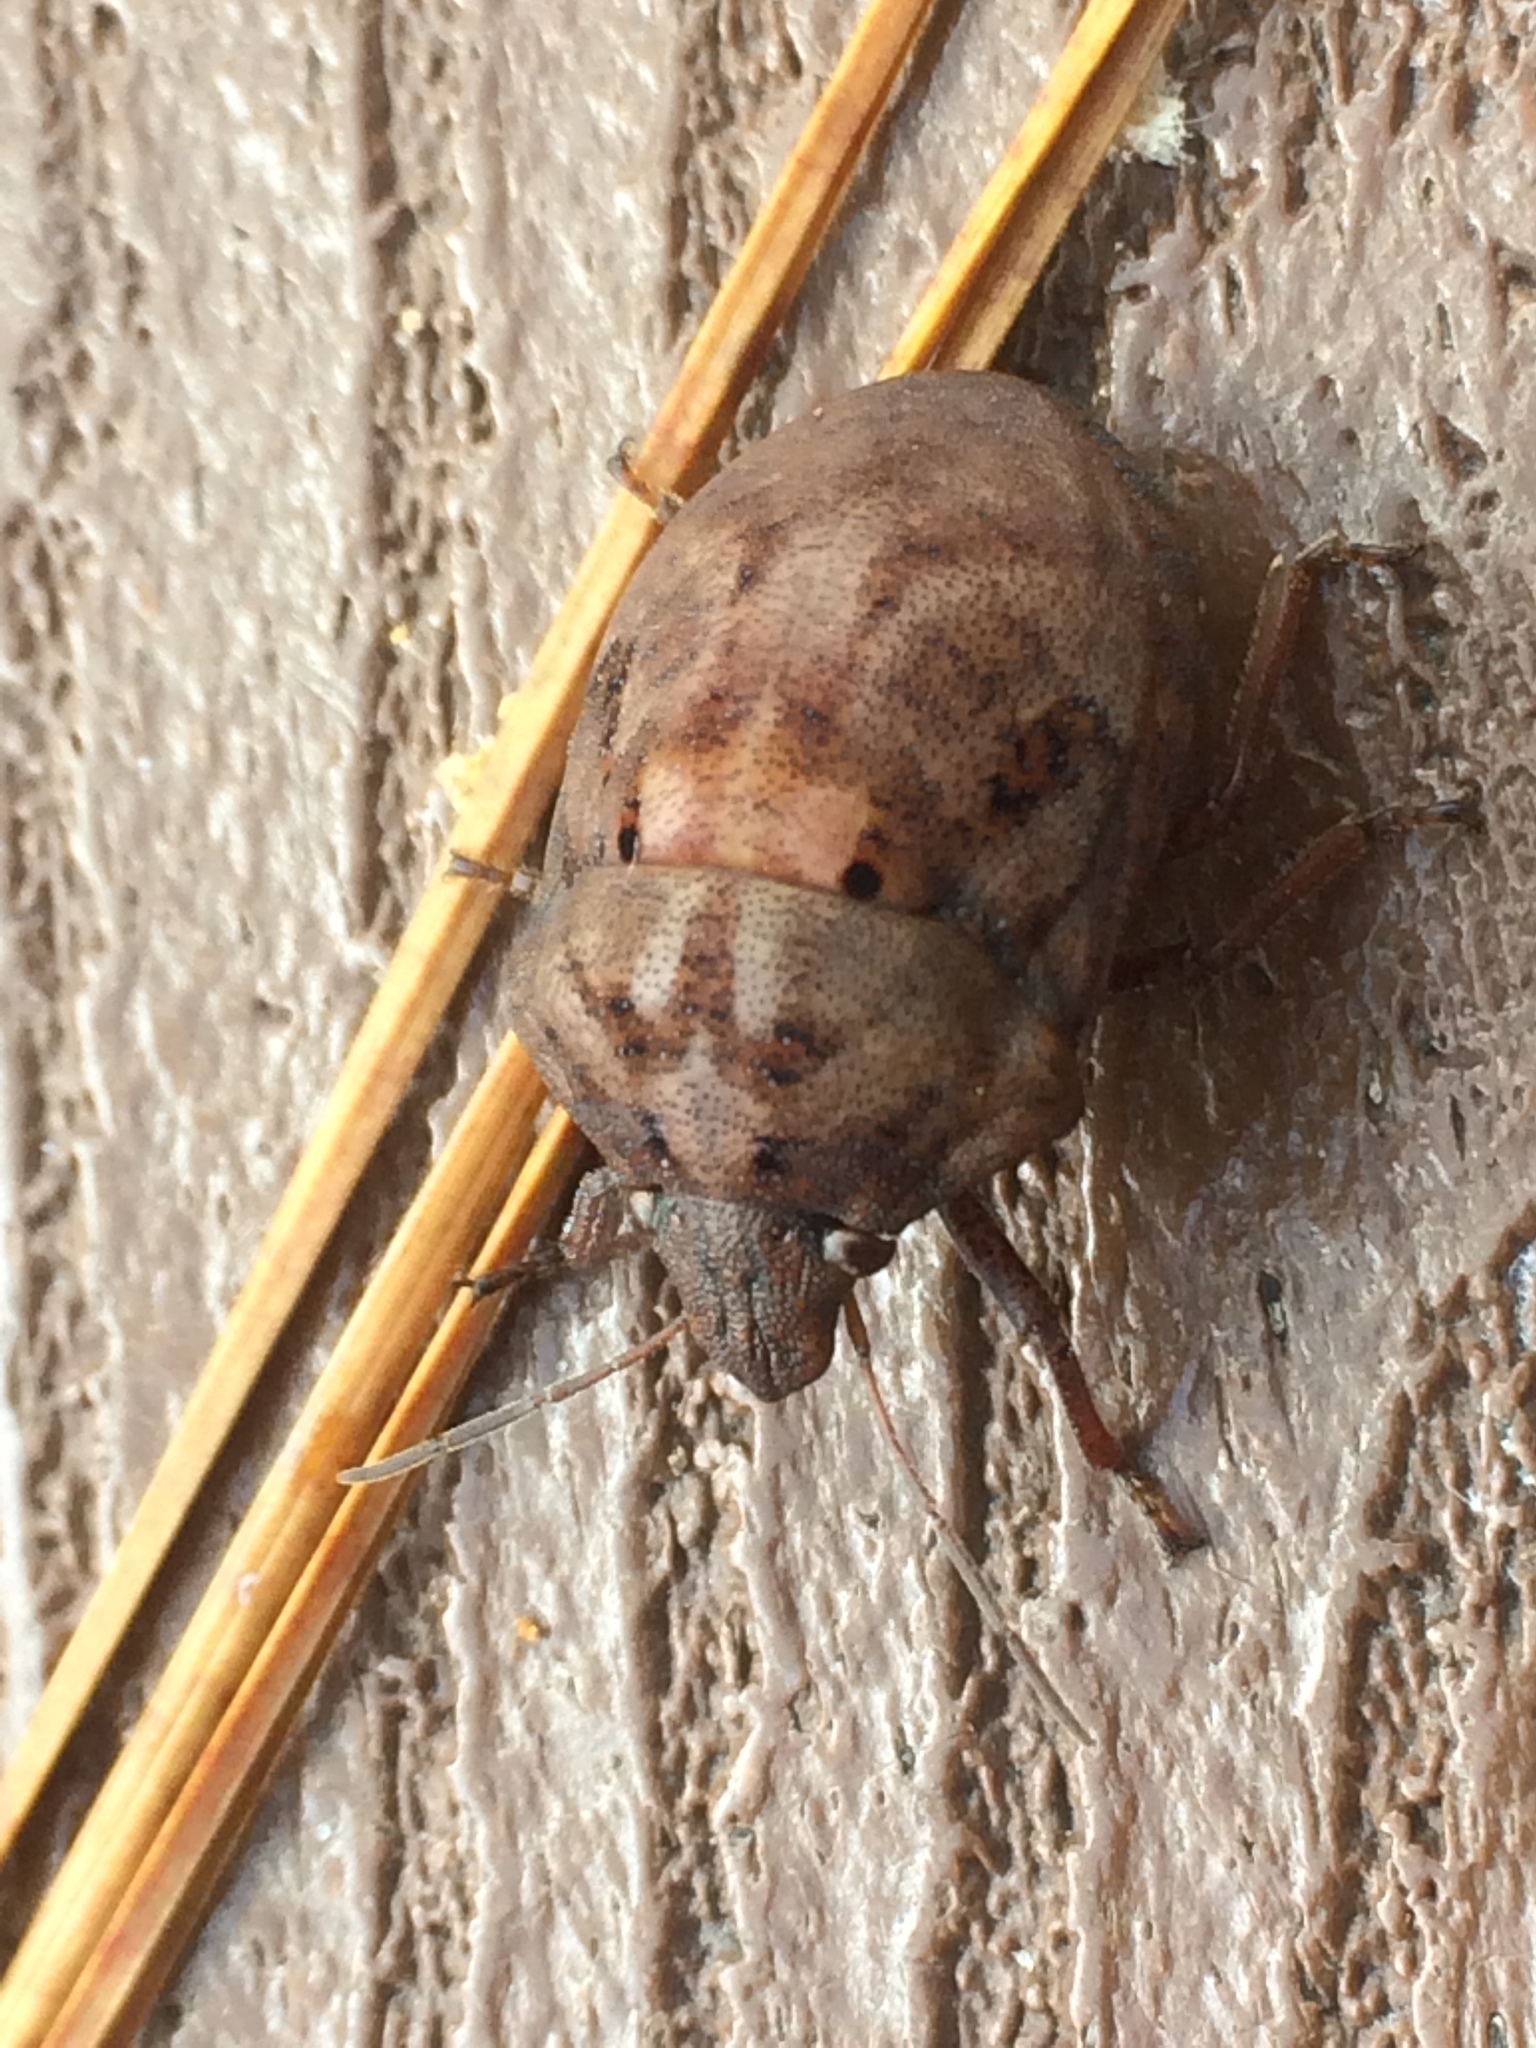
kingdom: Animalia
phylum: Arthropoda
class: Insecta
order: Hemiptera
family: Scutelleridae
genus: Tetyra
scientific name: Tetyra bipunctata
